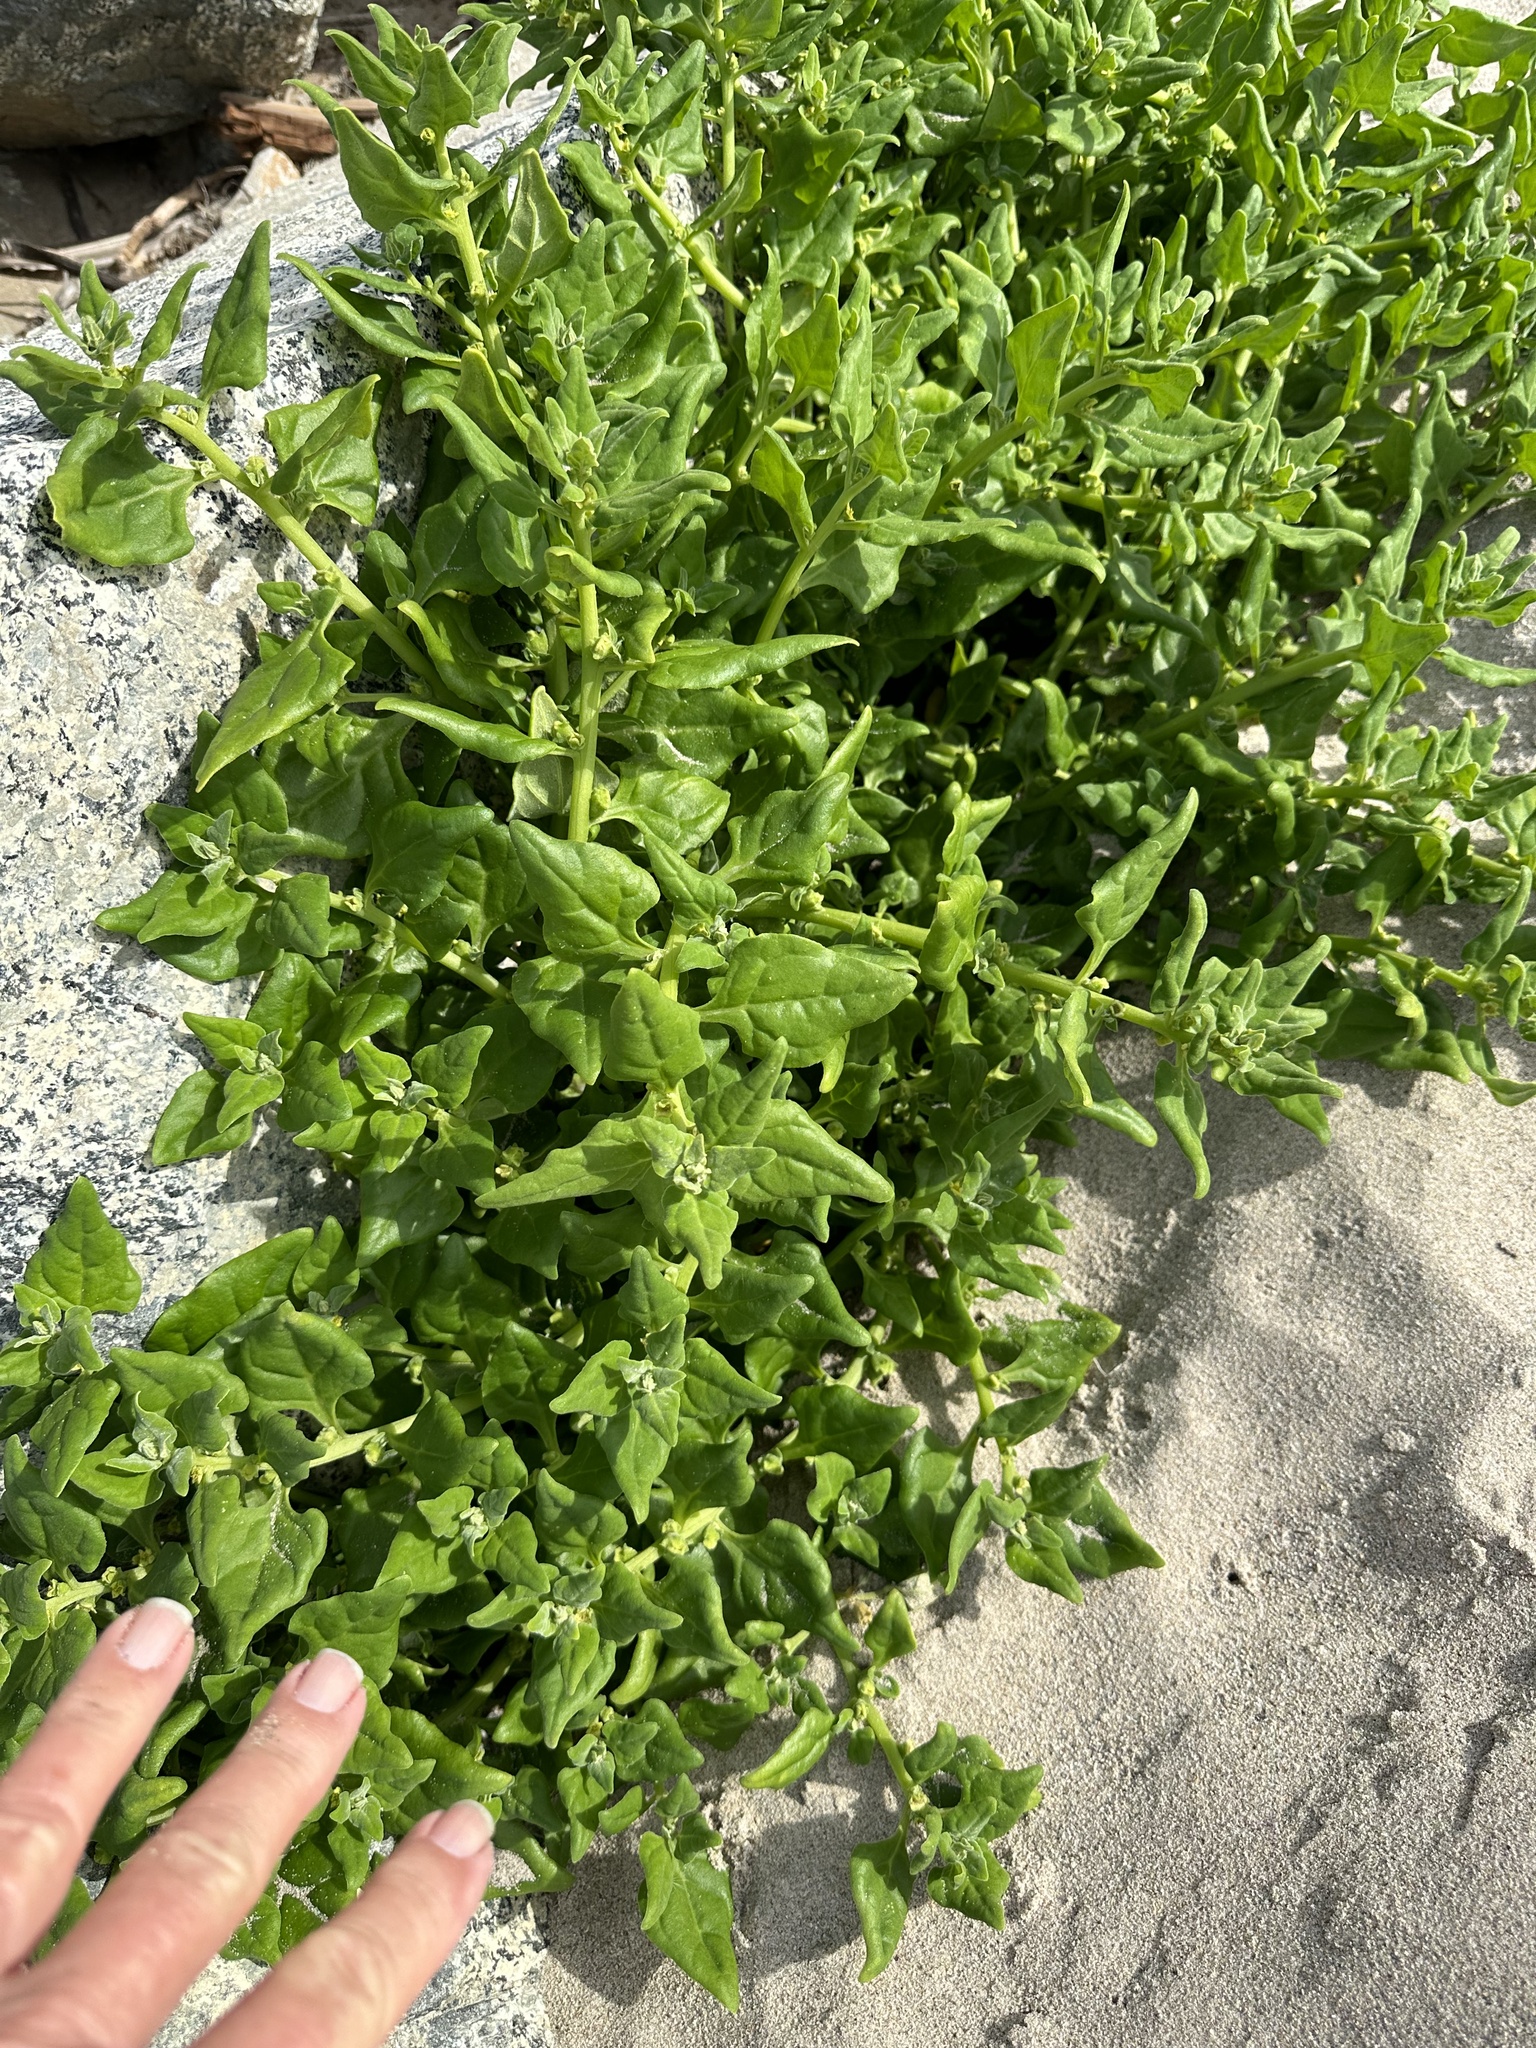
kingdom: Plantae
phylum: Tracheophyta
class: Magnoliopsida
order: Caryophyllales
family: Aizoaceae
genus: Tetragonia
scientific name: Tetragonia tetragonoides
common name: New zealand-spinach
